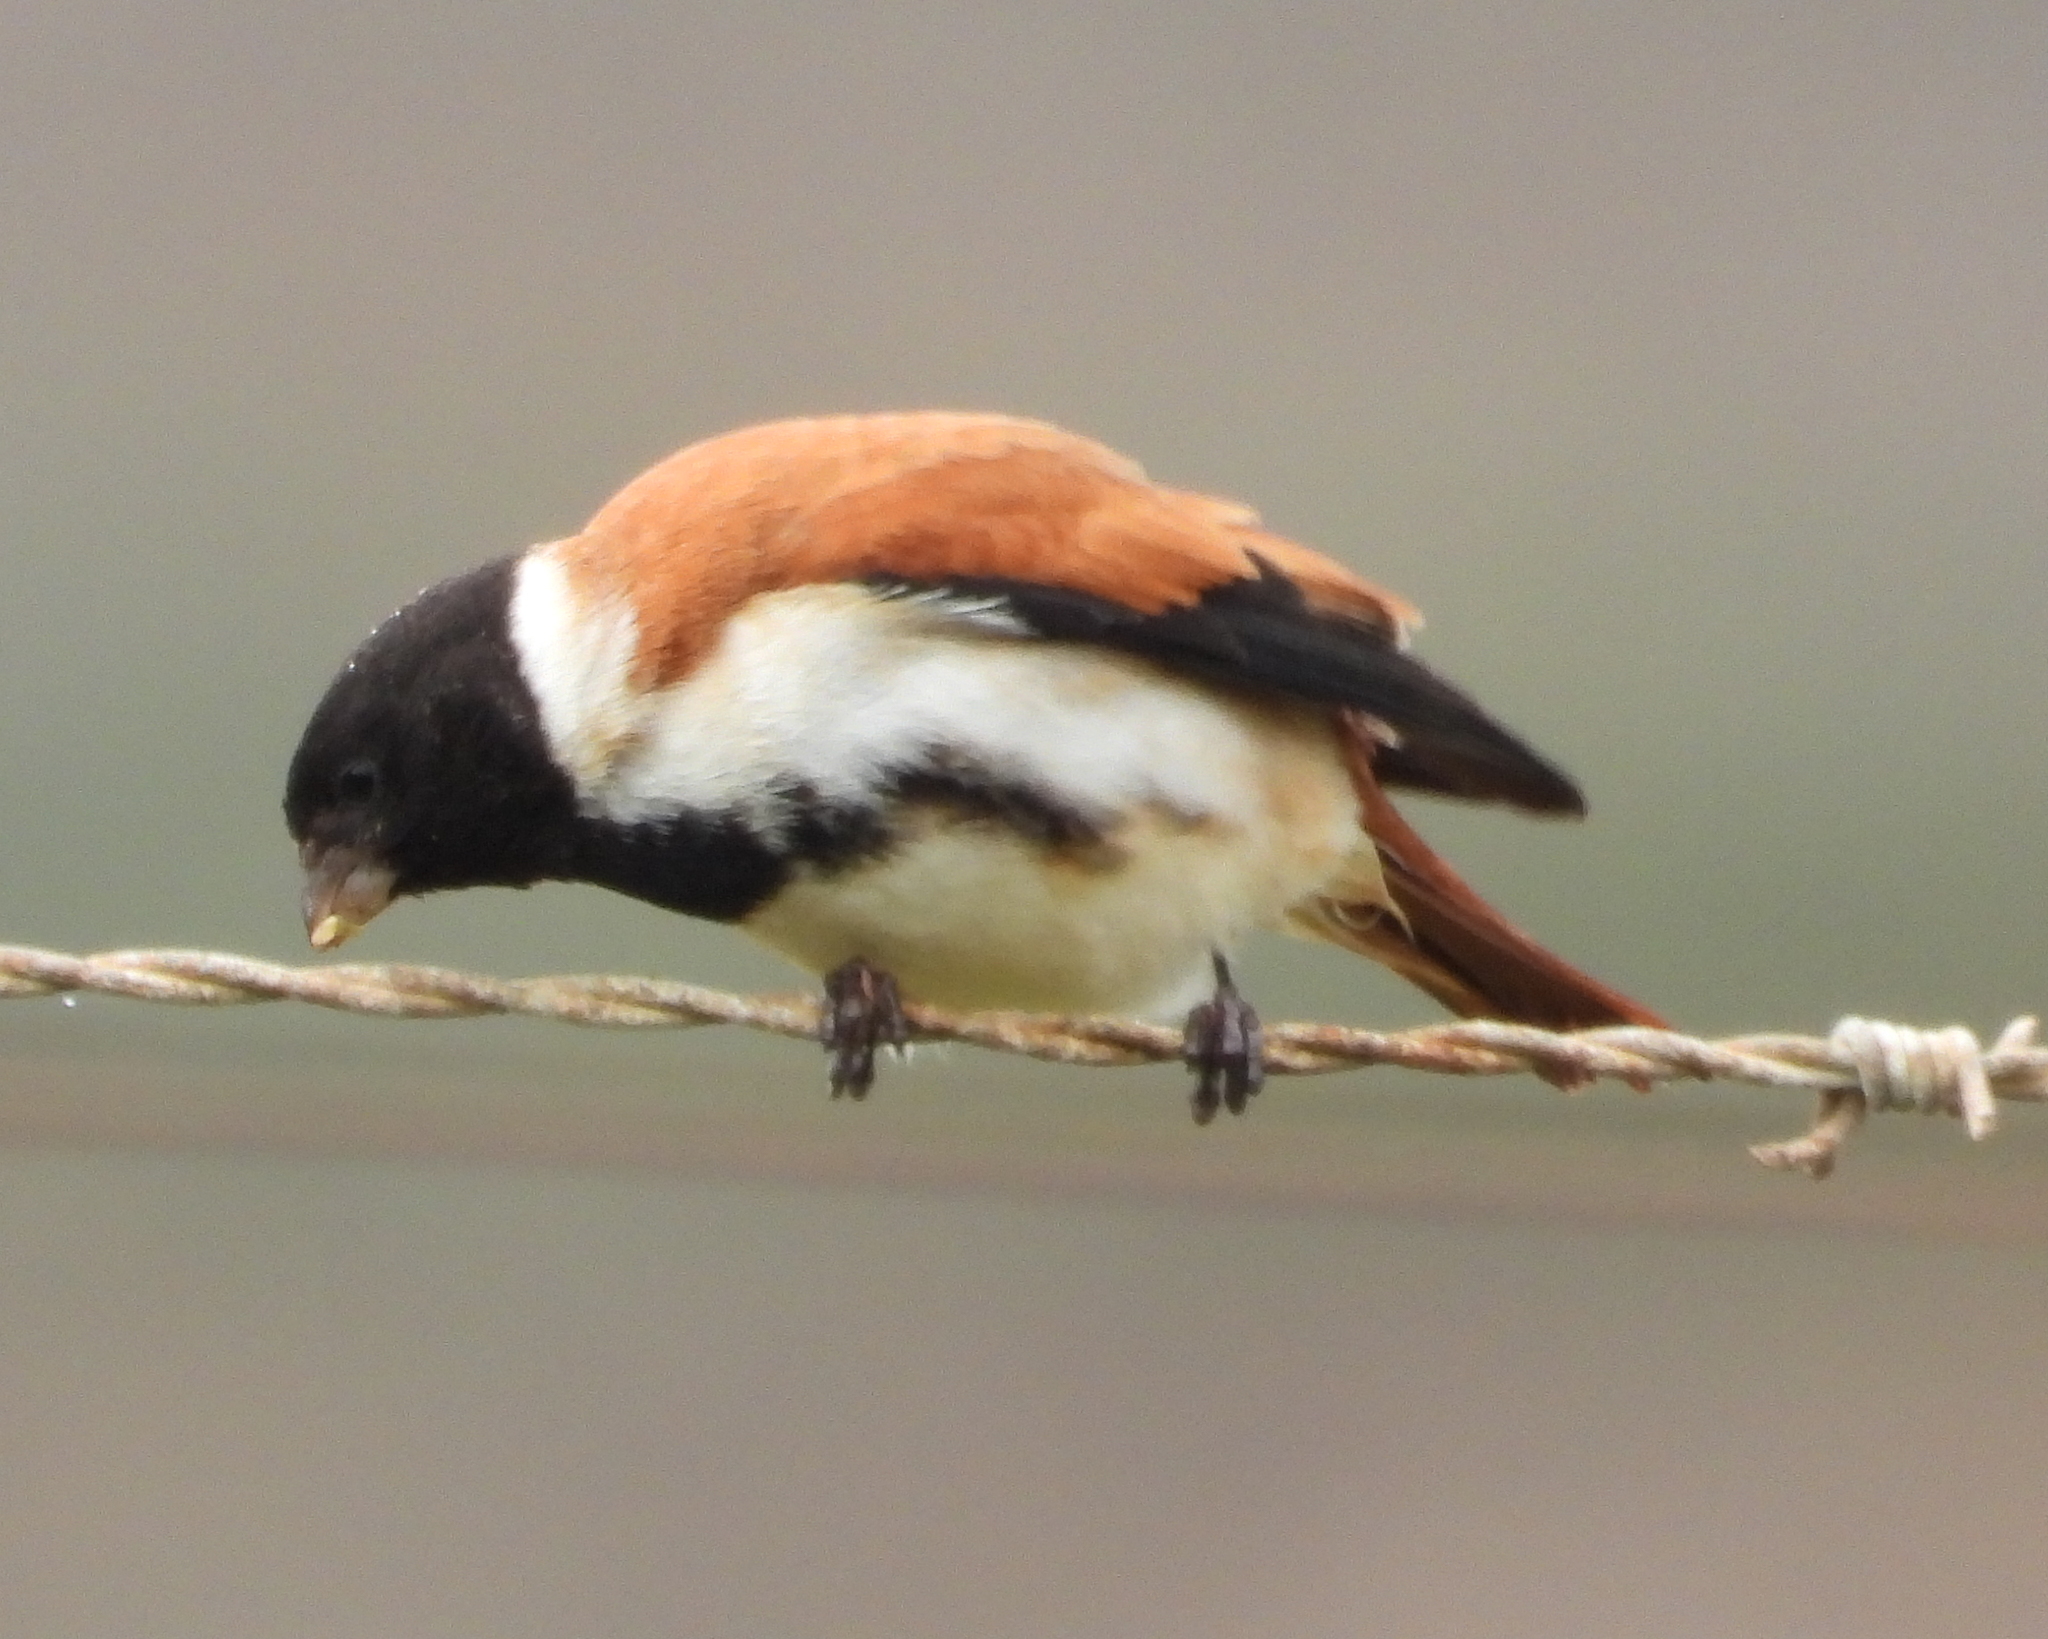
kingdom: Animalia
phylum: Chordata
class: Aves
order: Passeriformes
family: Fringillidae
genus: Serinus
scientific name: Serinus alario
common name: Black-headed canary
